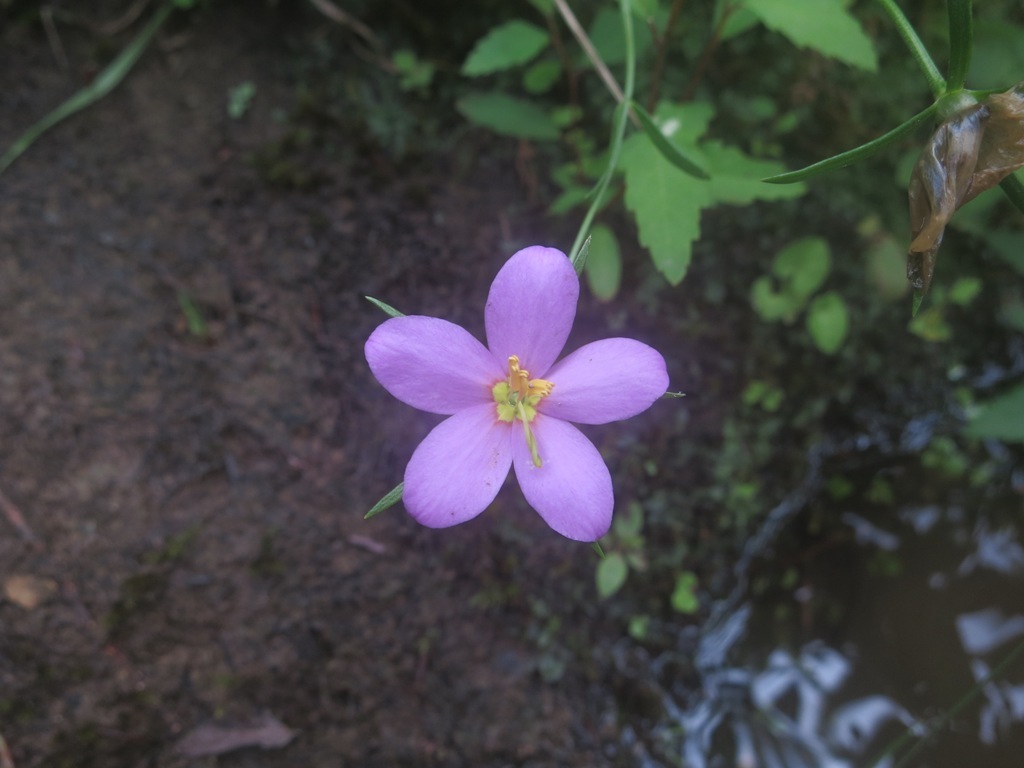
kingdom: Plantae
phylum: Tracheophyta
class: Magnoliopsida
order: Gentianales
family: Gentianaceae
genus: Sabatia
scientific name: Sabatia campanulata
